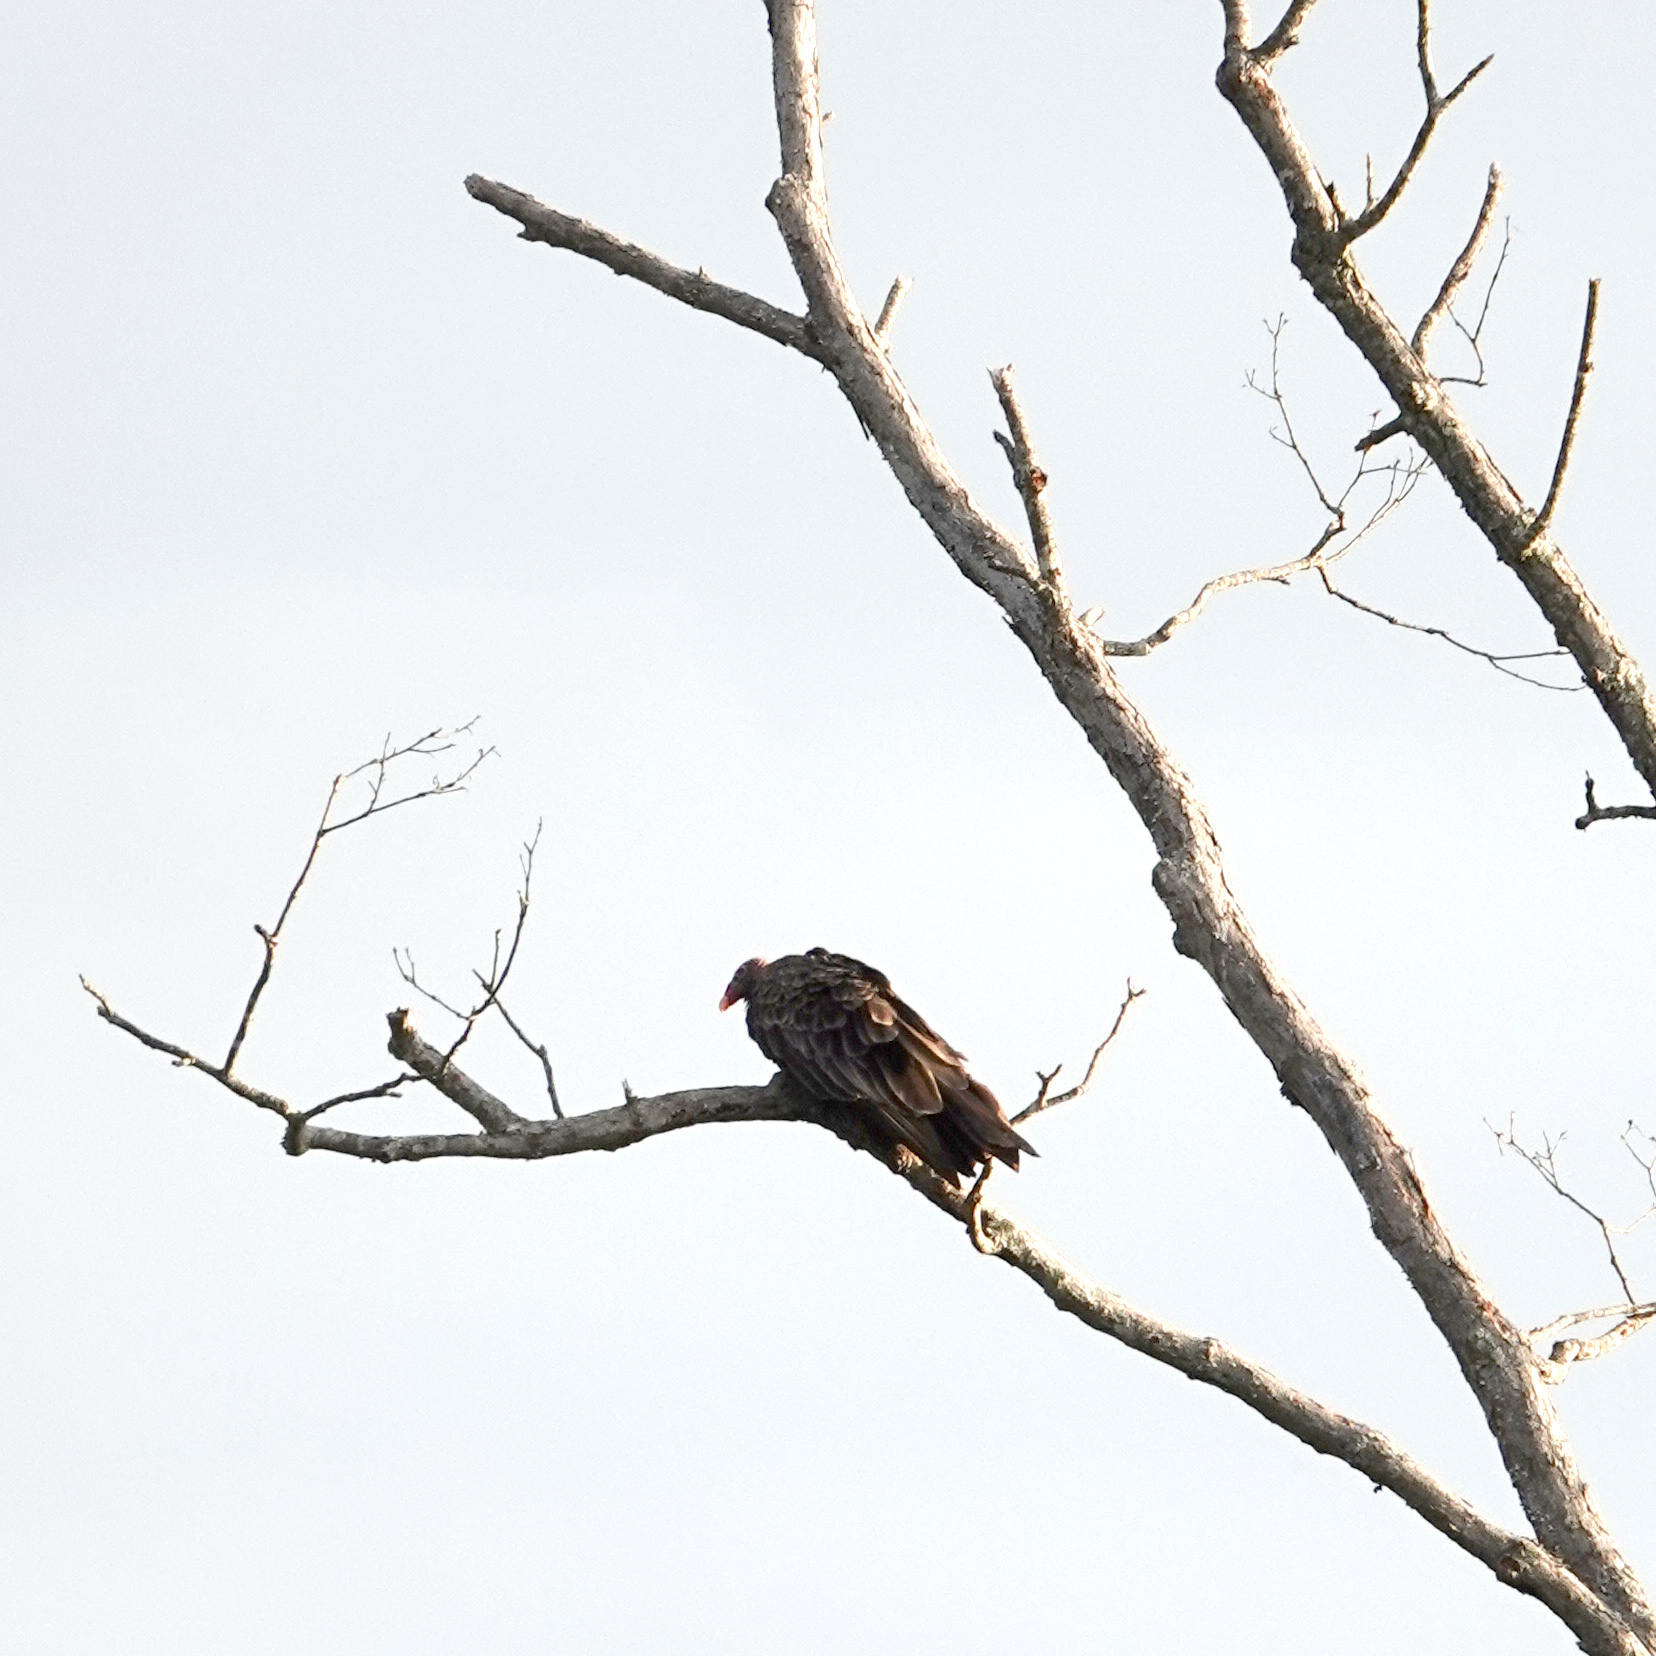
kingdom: Animalia
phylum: Chordata
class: Aves
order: Accipitriformes
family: Cathartidae
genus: Cathartes
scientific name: Cathartes aura
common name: Turkey vulture
